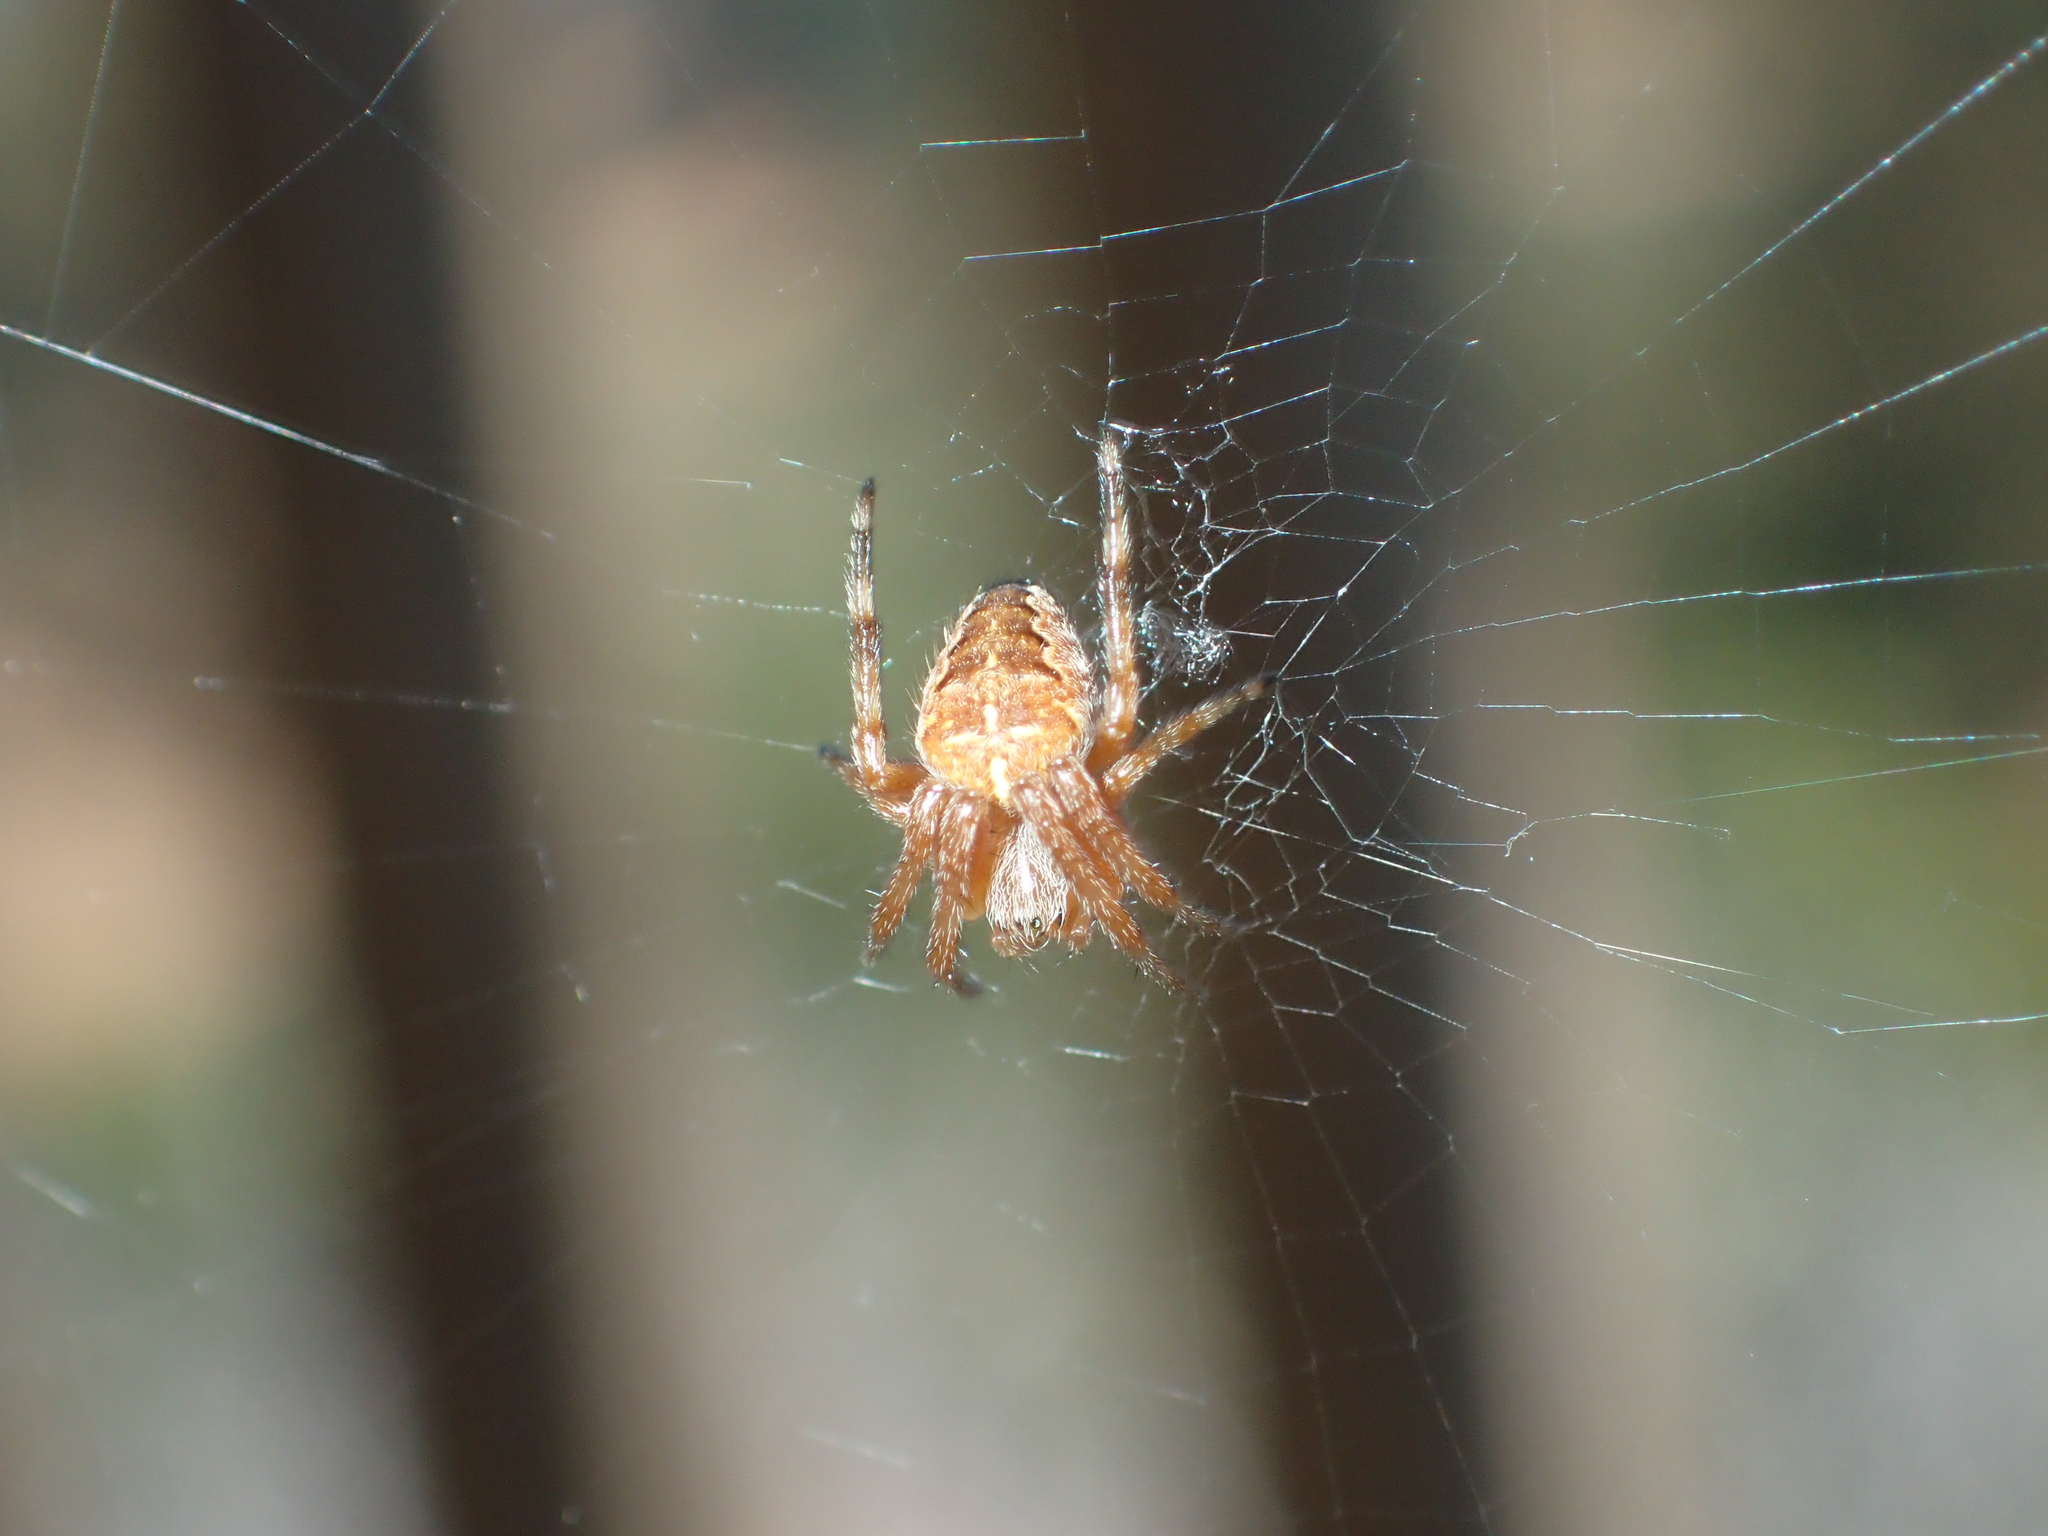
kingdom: Animalia
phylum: Arthropoda
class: Arachnida
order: Araneae
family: Araneidae
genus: Araneus
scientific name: Araneus diadematus
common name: Cross orbweaver
